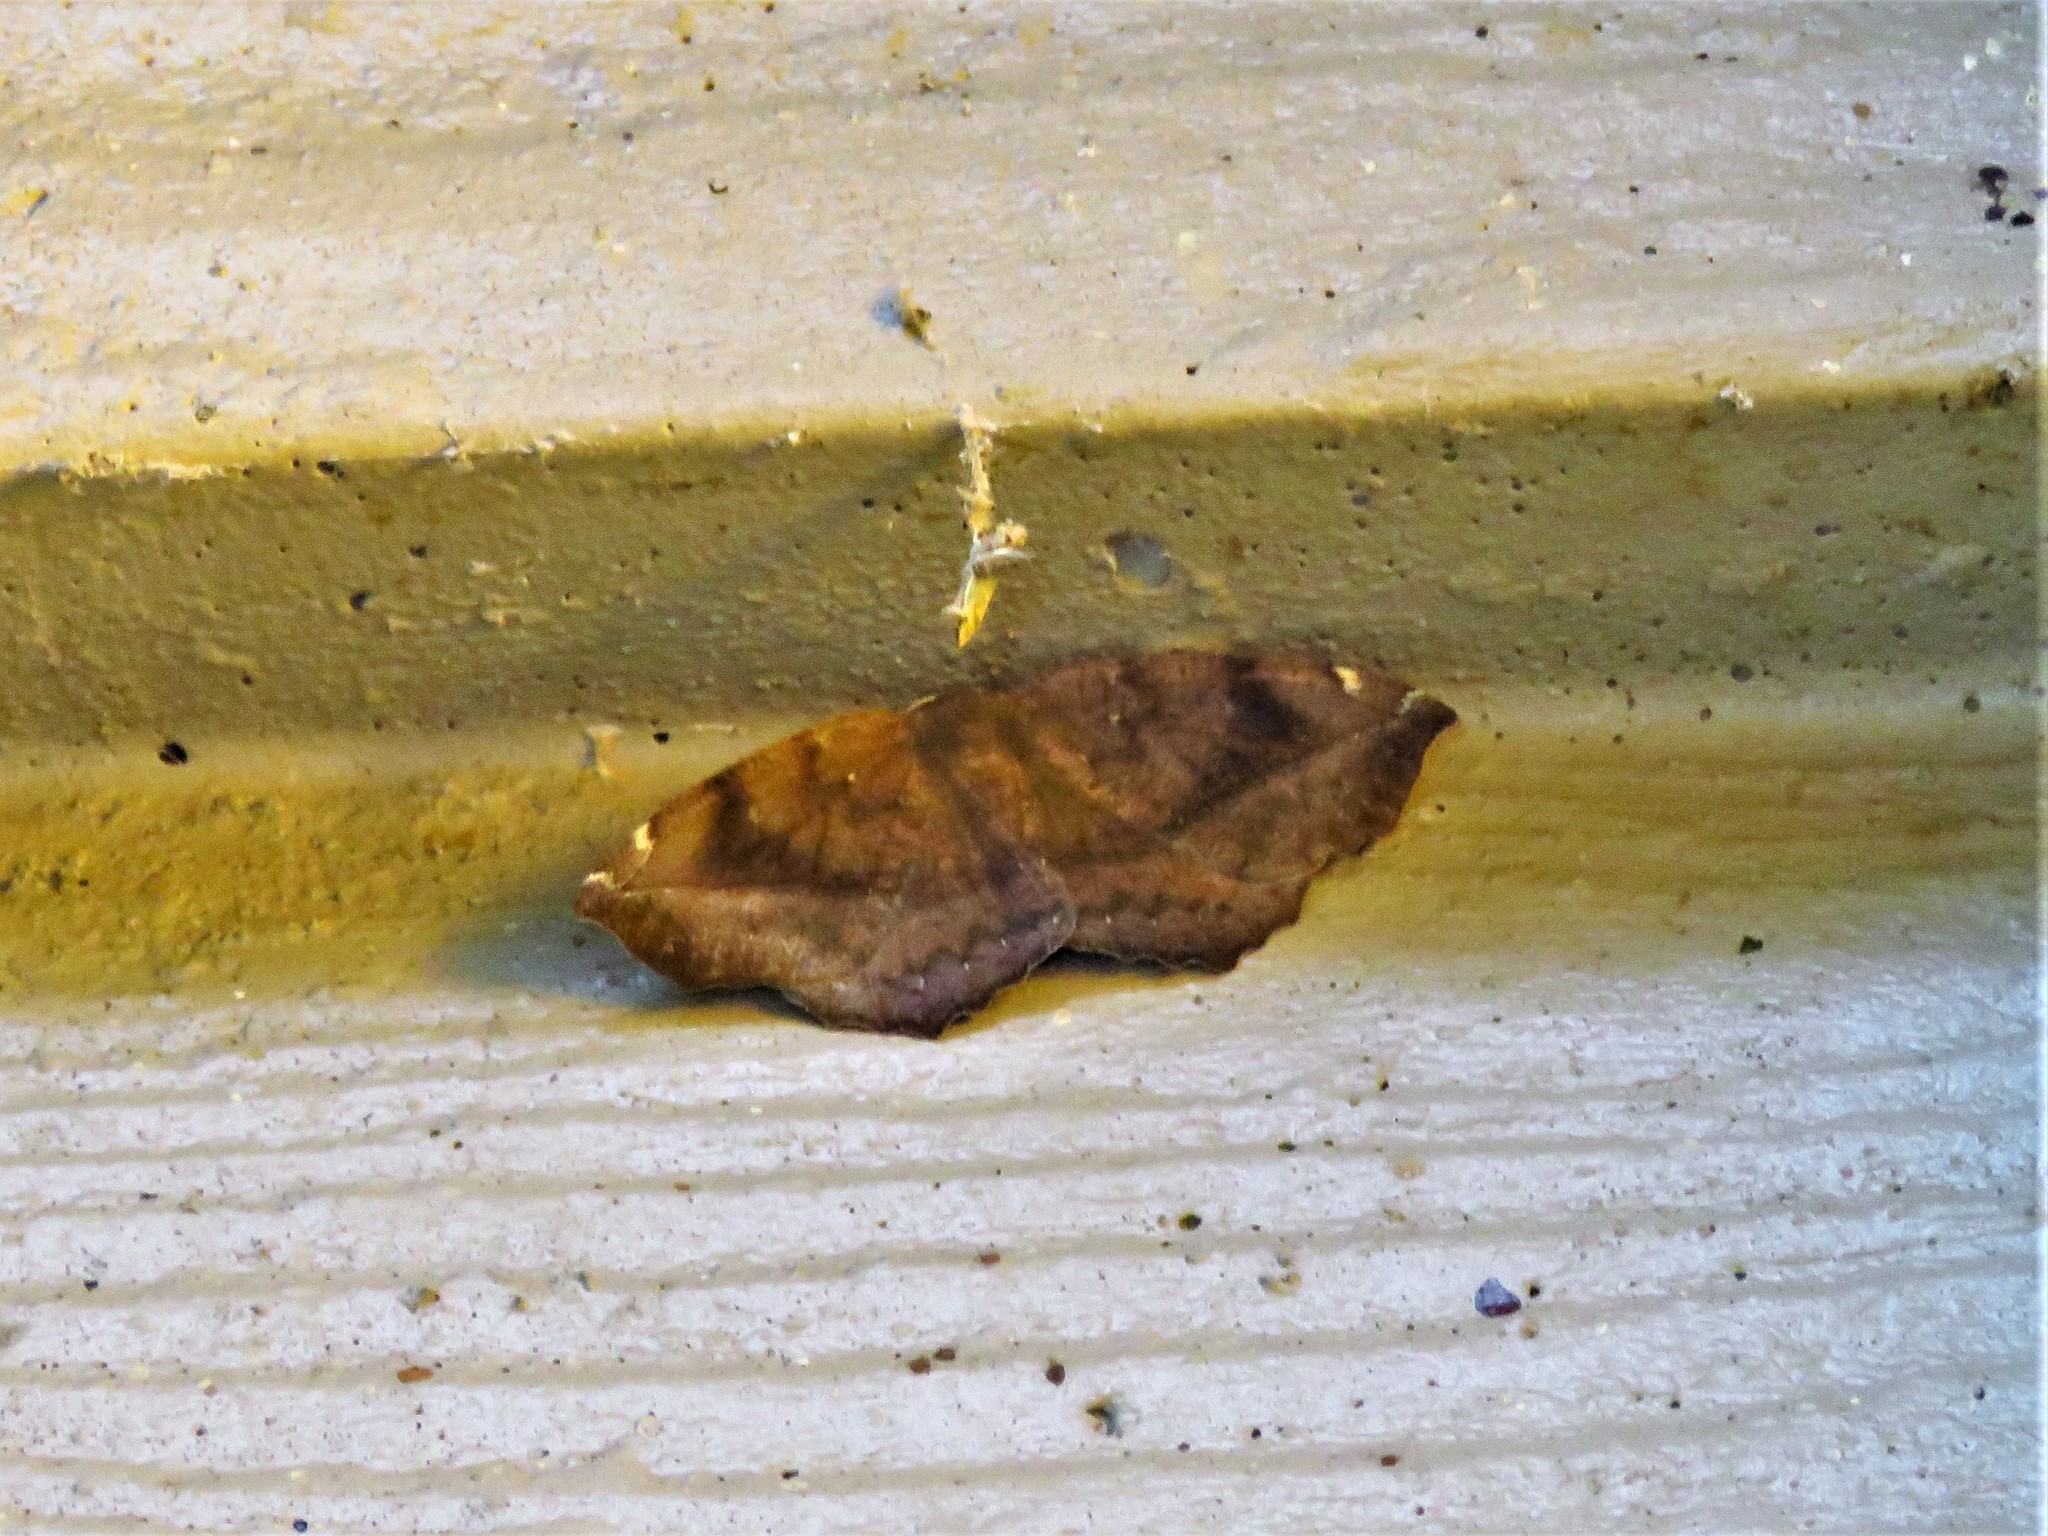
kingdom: Animalia
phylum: Arthropoda
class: Insecta
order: Lepidoptera
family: Geometridae
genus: Eutrapela
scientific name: Eutrapela clemataria
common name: Curved-toothed geometer
